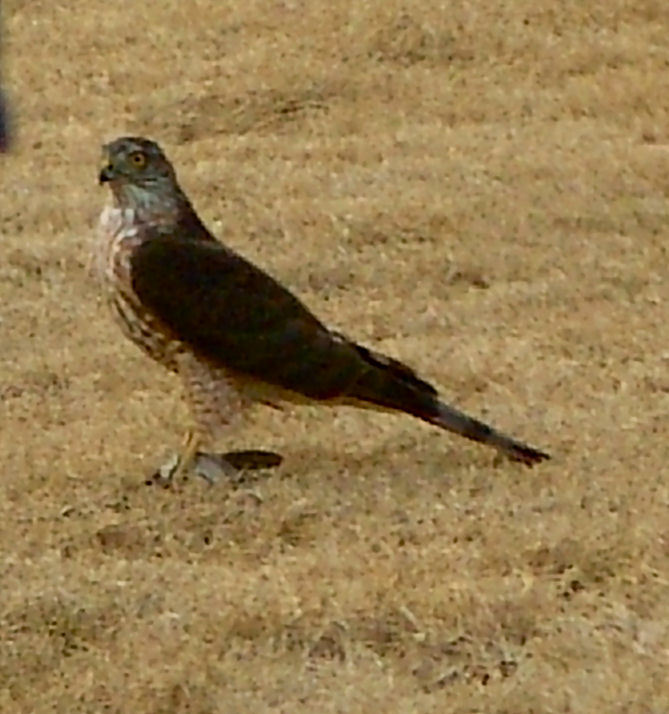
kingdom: Animalia
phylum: Chordata
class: Aves
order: Accipitriformes
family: Accipitridae
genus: Accipiter
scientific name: Accipiter cooperii
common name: Cooper's hawk
